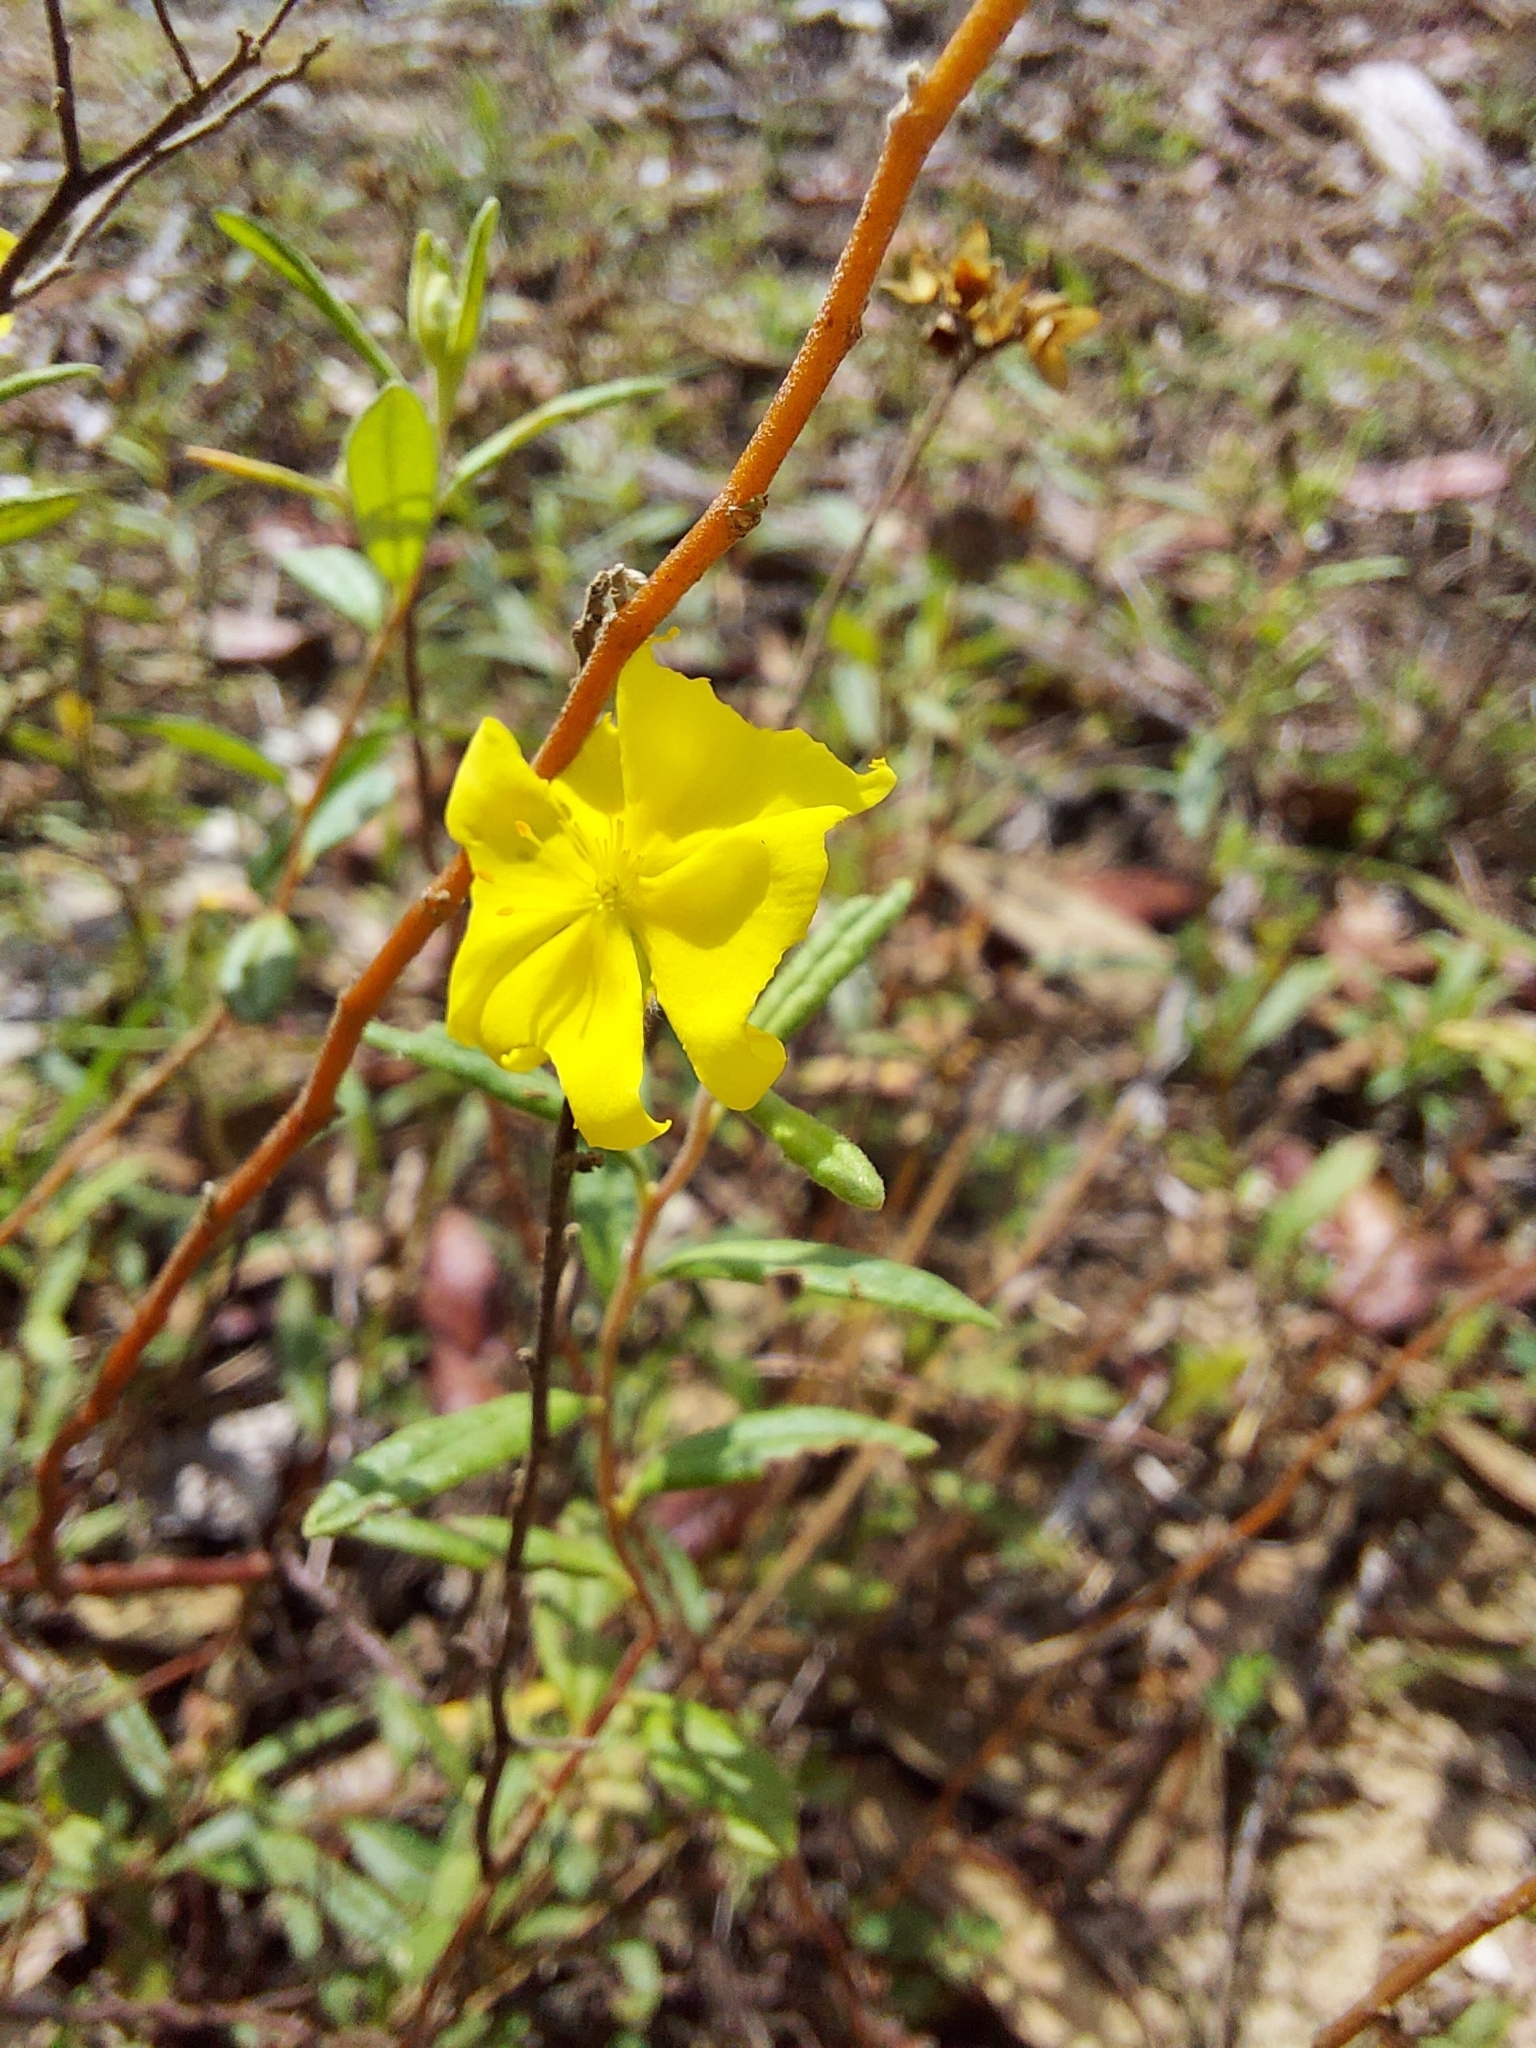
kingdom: Plantae
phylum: Tracheophyta
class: Magnoliopsida
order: Malvales
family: Cistaceae
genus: Crocanthemum
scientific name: Crocanthemum corymbosum
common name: Pinebarren sun-rose
